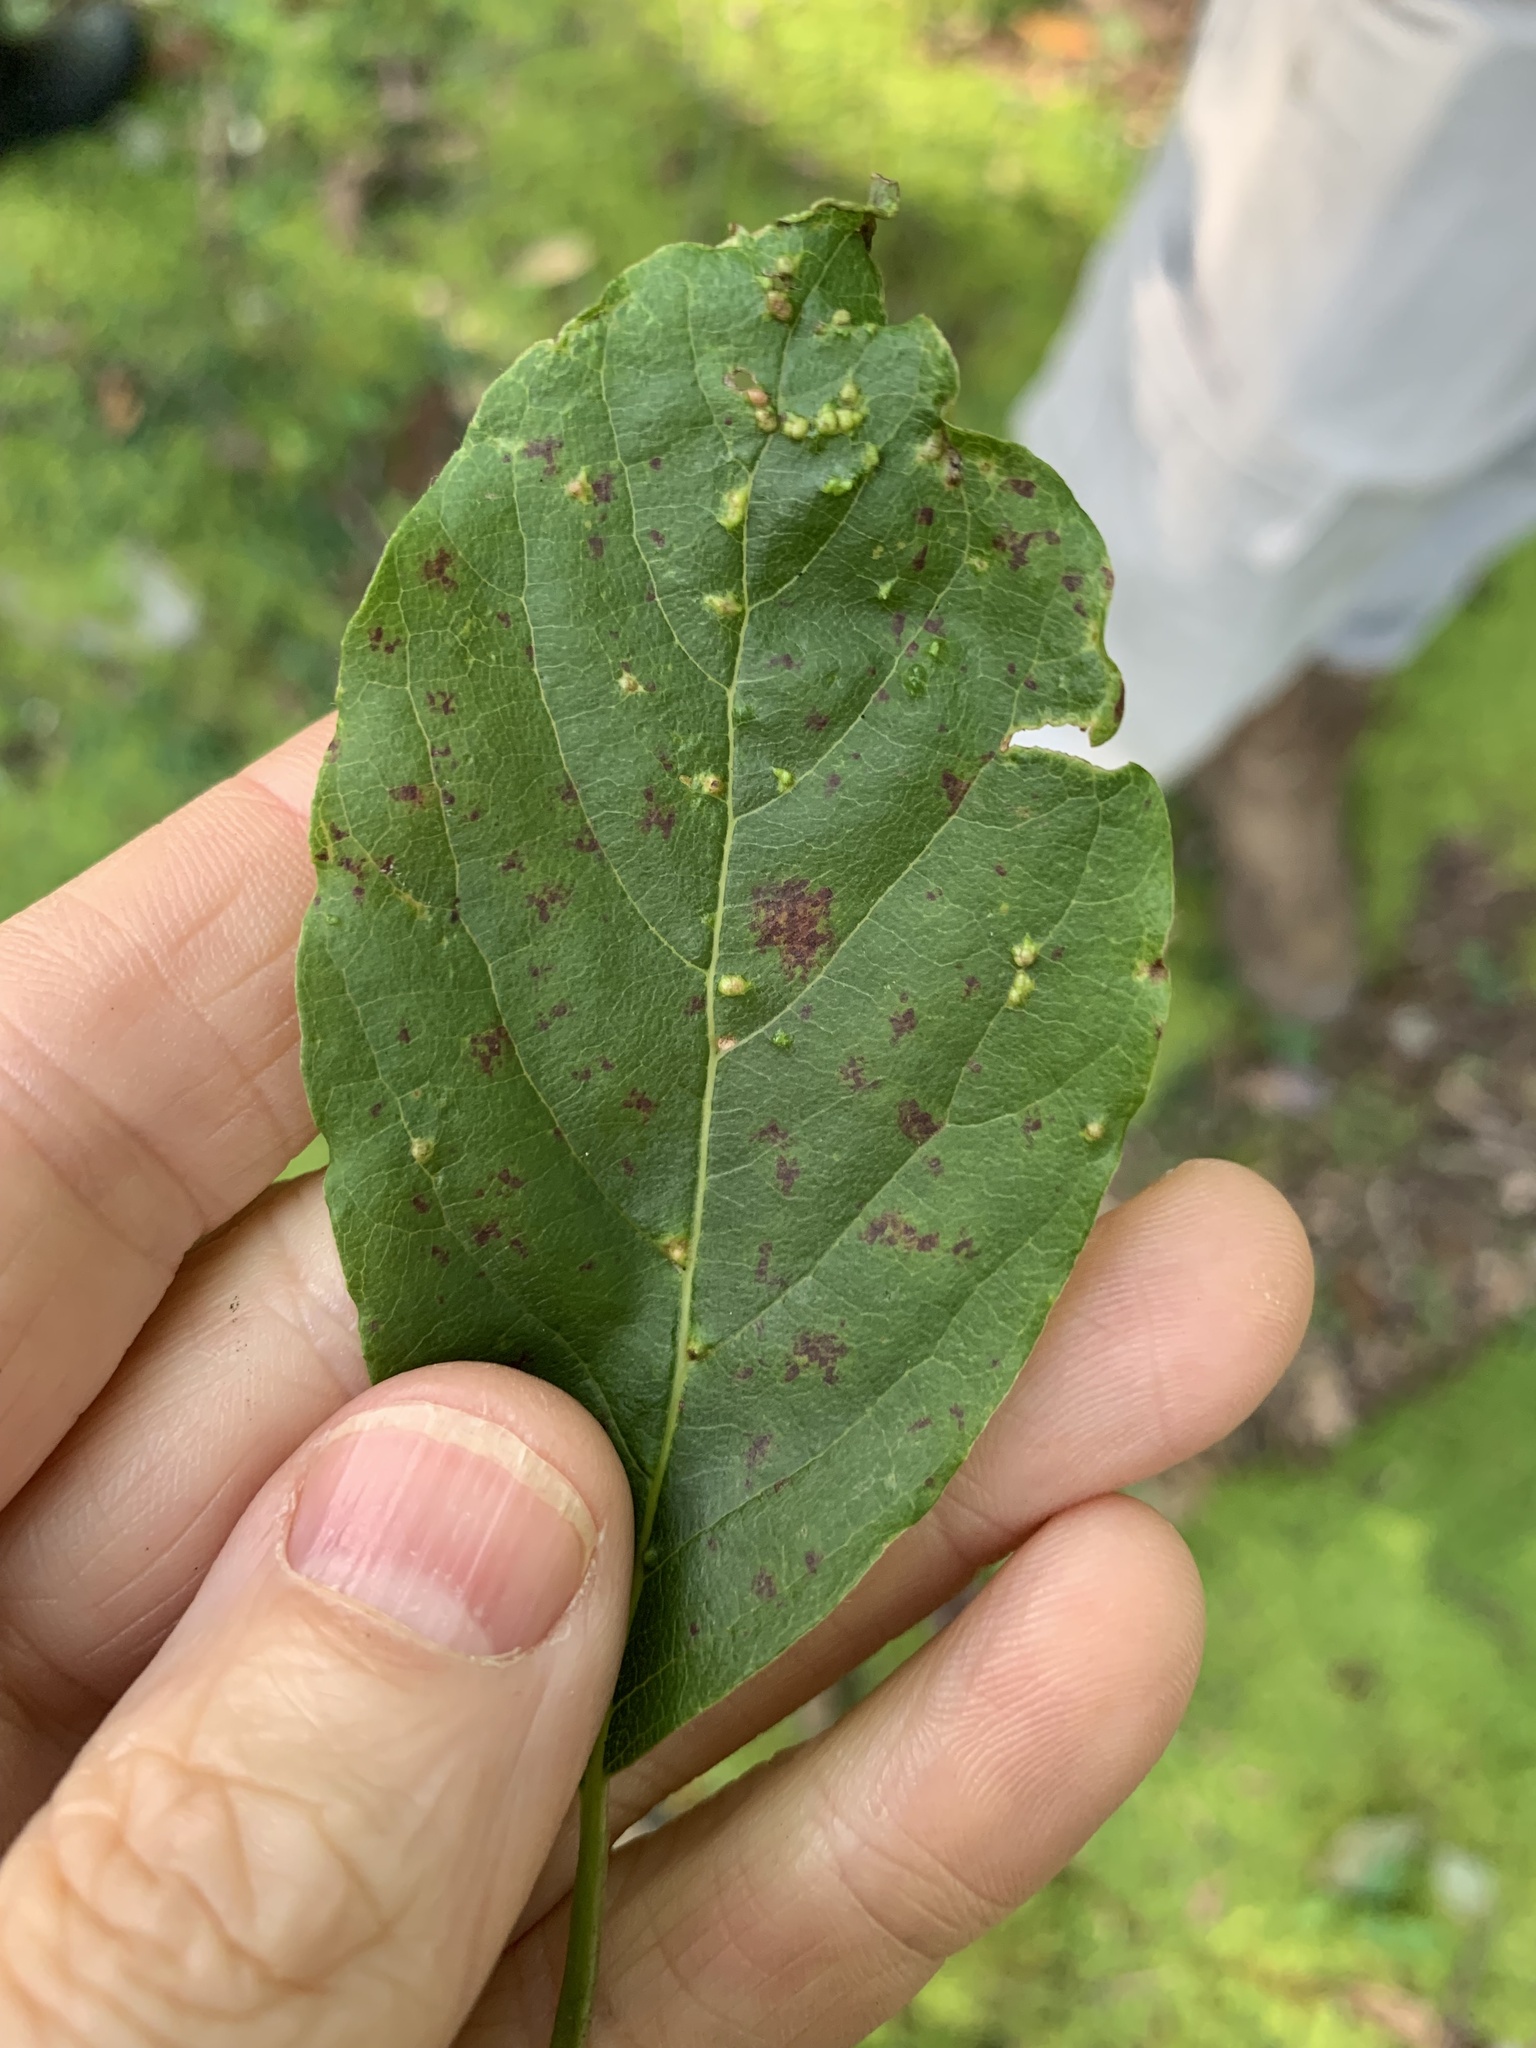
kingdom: Animalia
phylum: Arthropoda
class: Arachnida
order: Trombidiformes
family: Eriophyidae
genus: Aceria
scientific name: Aceria
